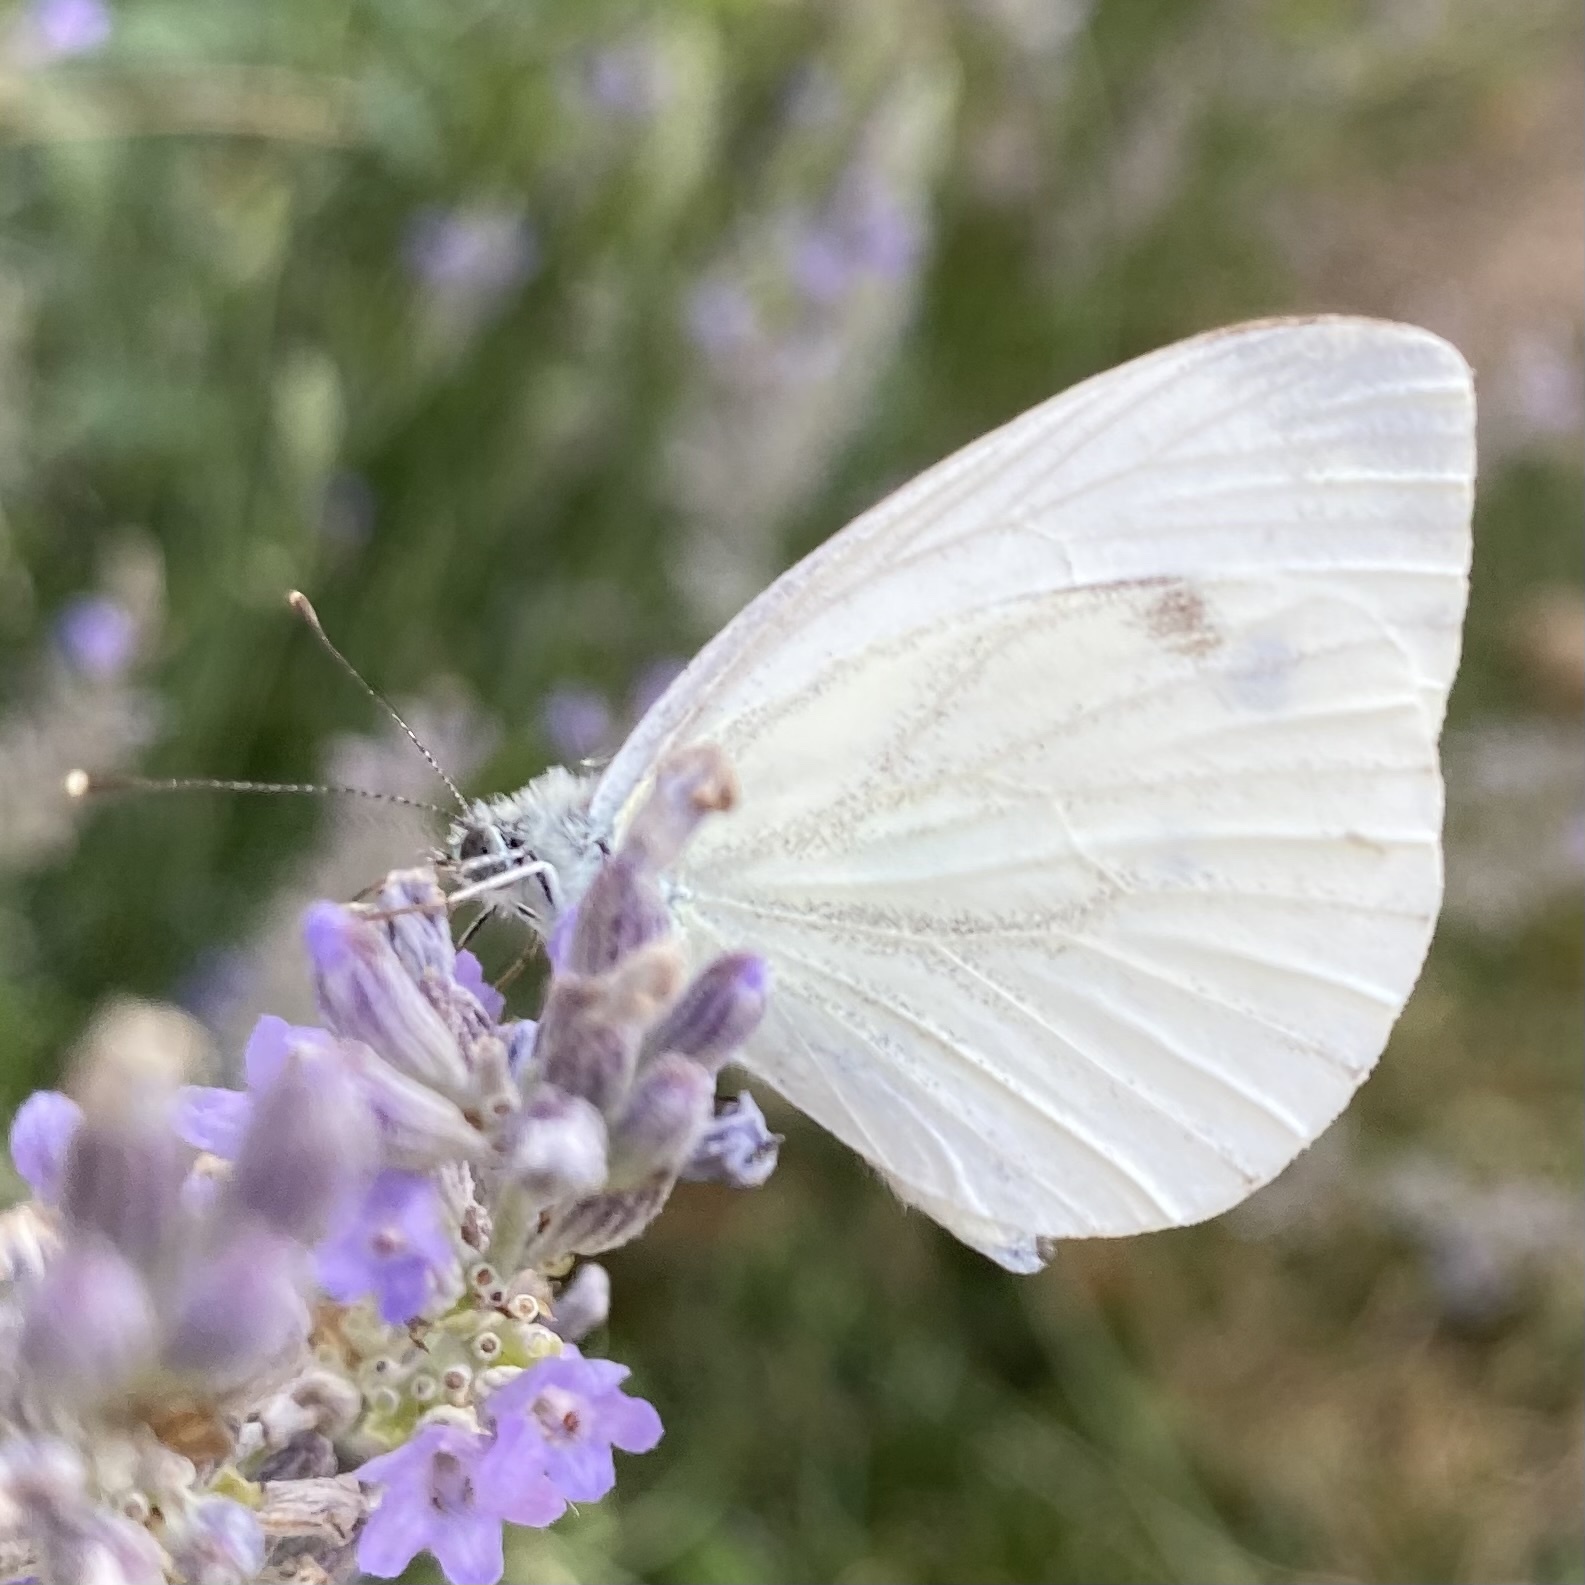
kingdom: Animalia
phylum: Arthropoda
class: Insecta
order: Lepidoptera
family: Pieridae
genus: Pieris
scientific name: Pieris napi
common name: Green-veined white
